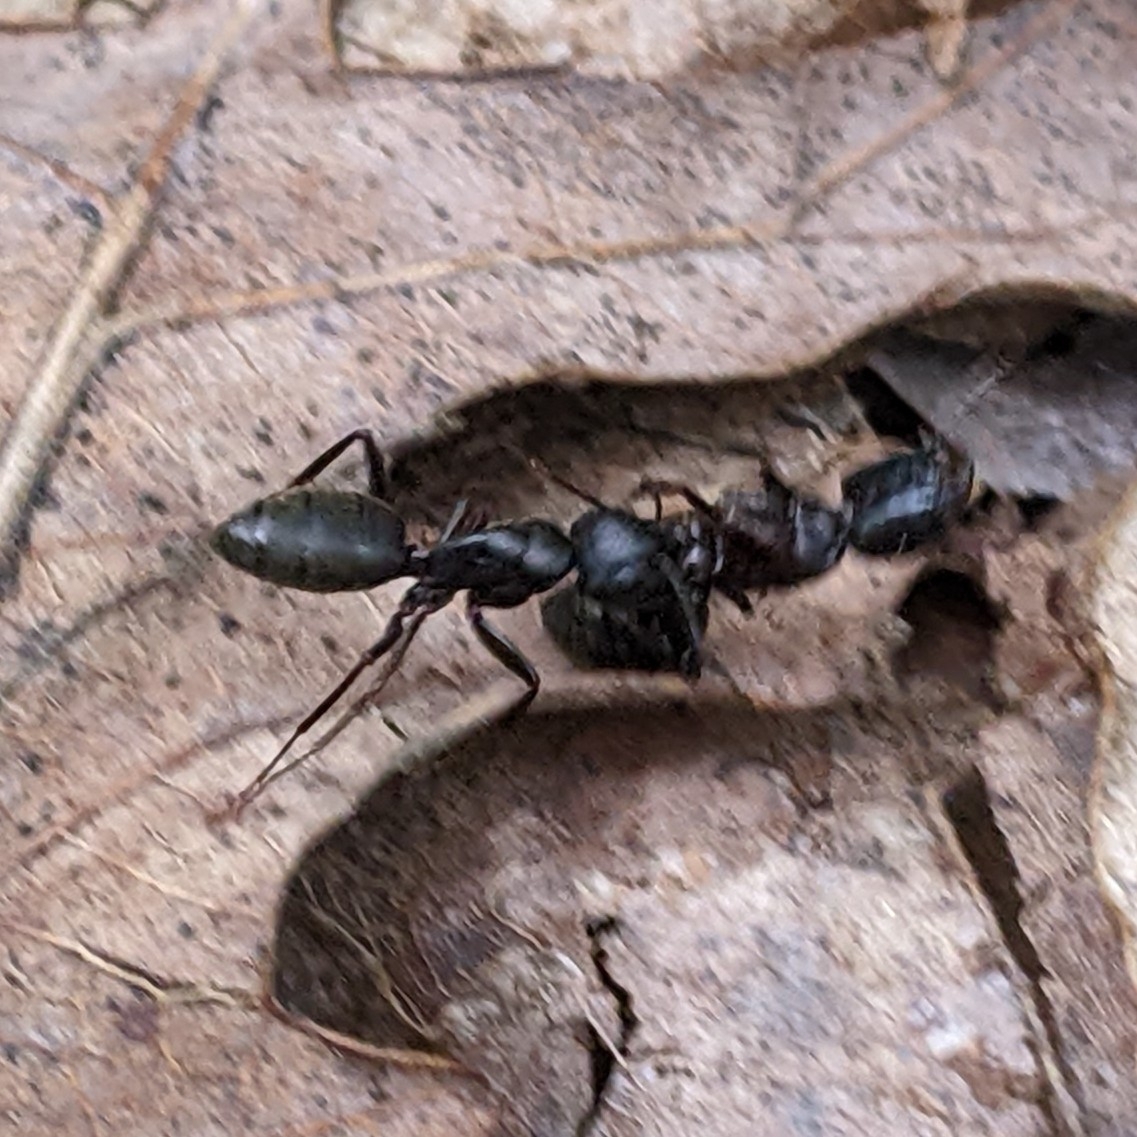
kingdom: Animalia
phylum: Arthropoda
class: Insecta
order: Hymenoptera
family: Formicidae
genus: Camponotus
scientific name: Camponotus pennsylvanicus
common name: Black carpenter ant
